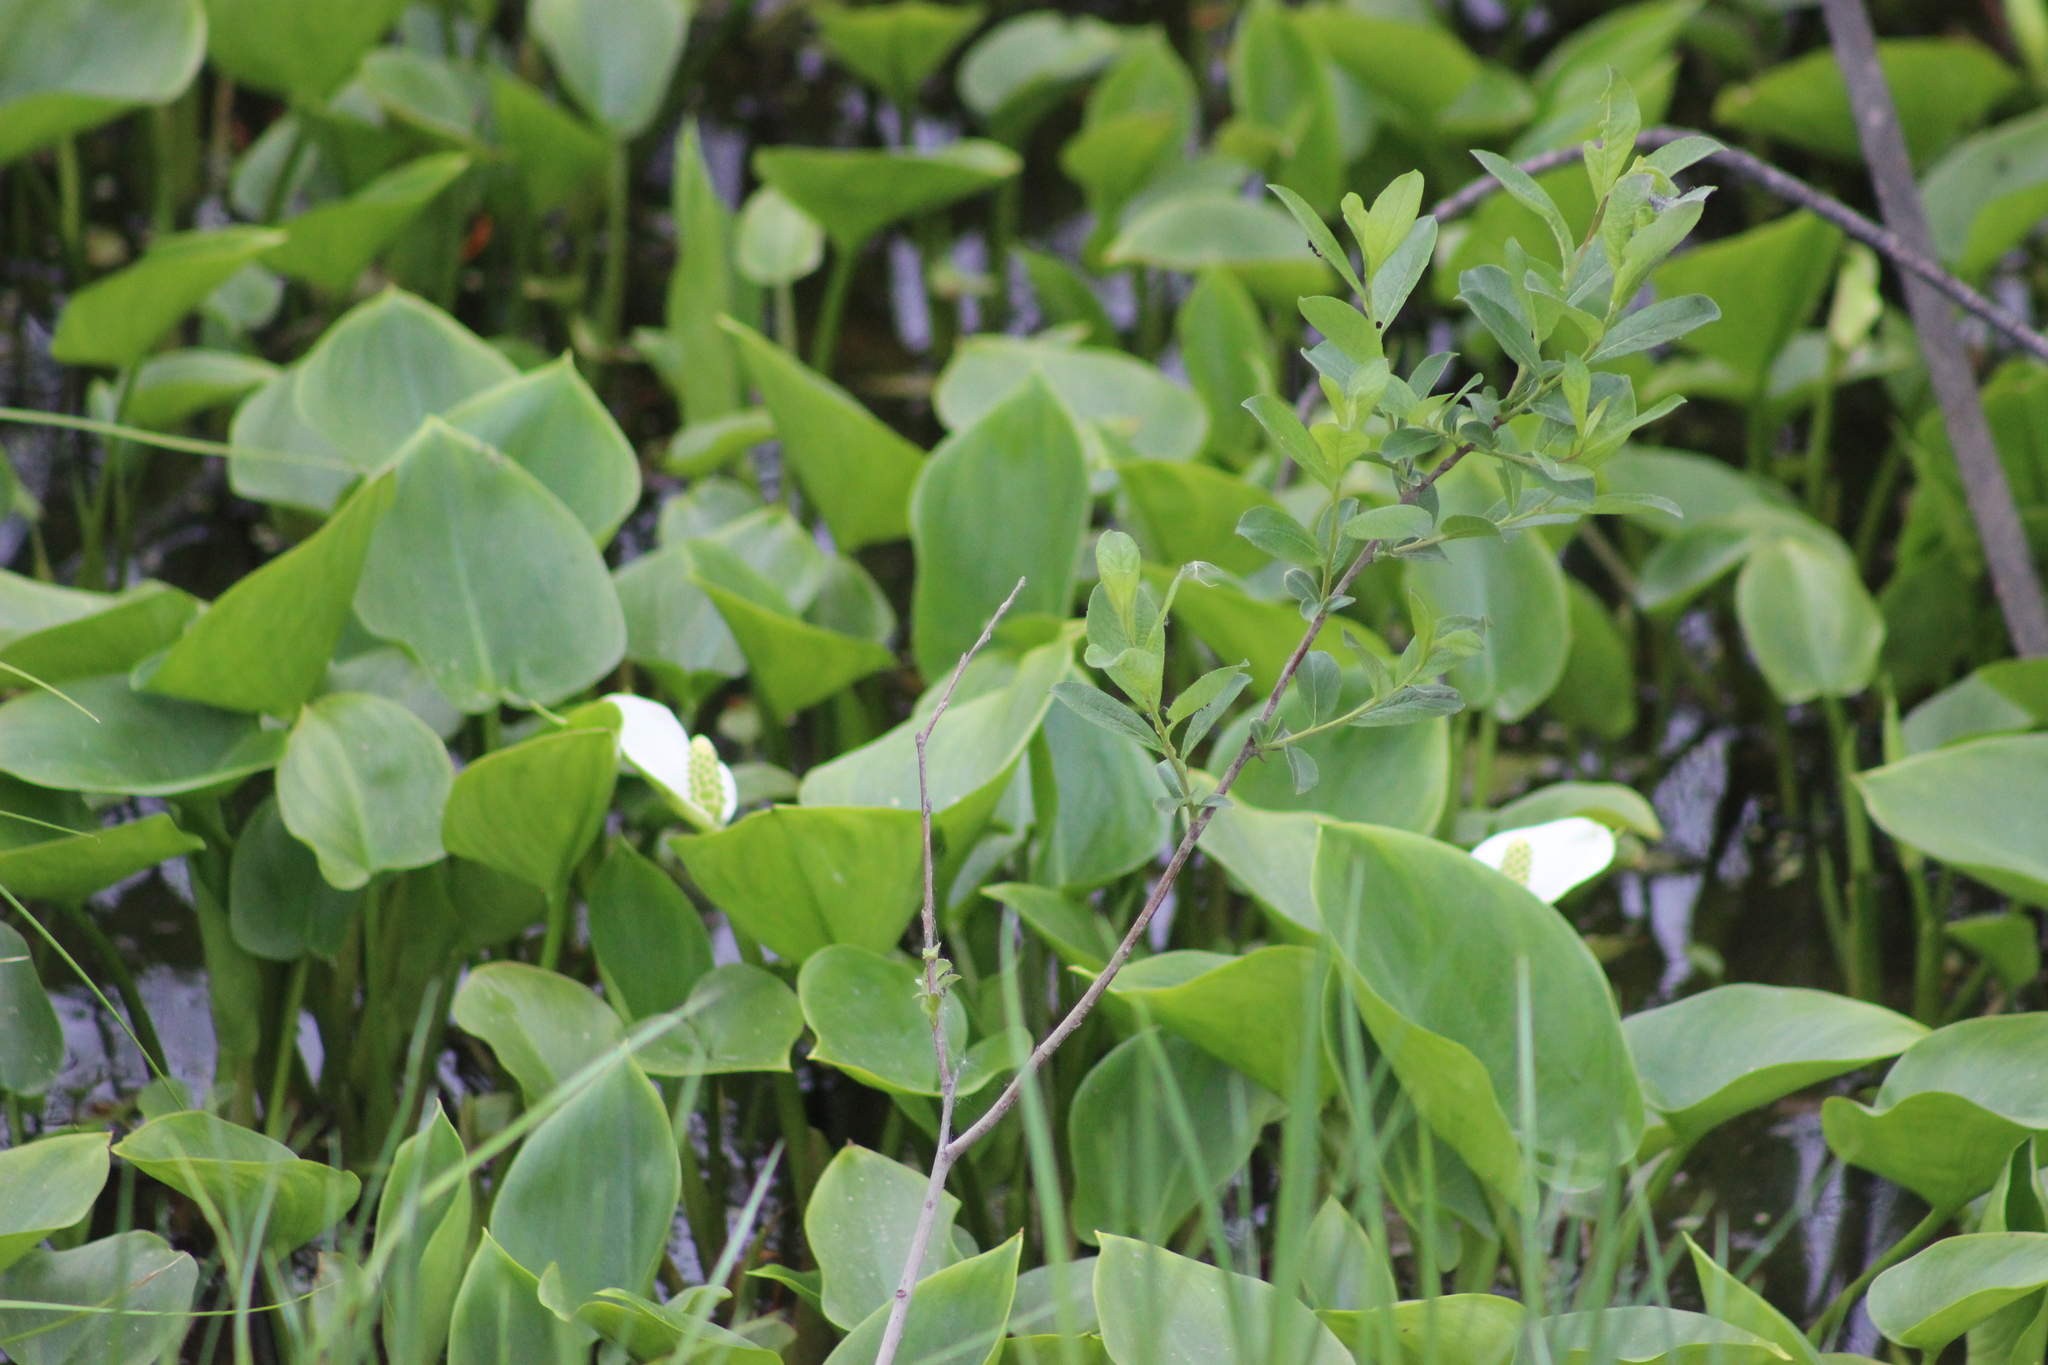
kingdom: Plantae
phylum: Tracheophyta
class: Liliopsida
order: Alismatales
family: Araceae
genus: Calla
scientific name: Calla palustris
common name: Bog arum
